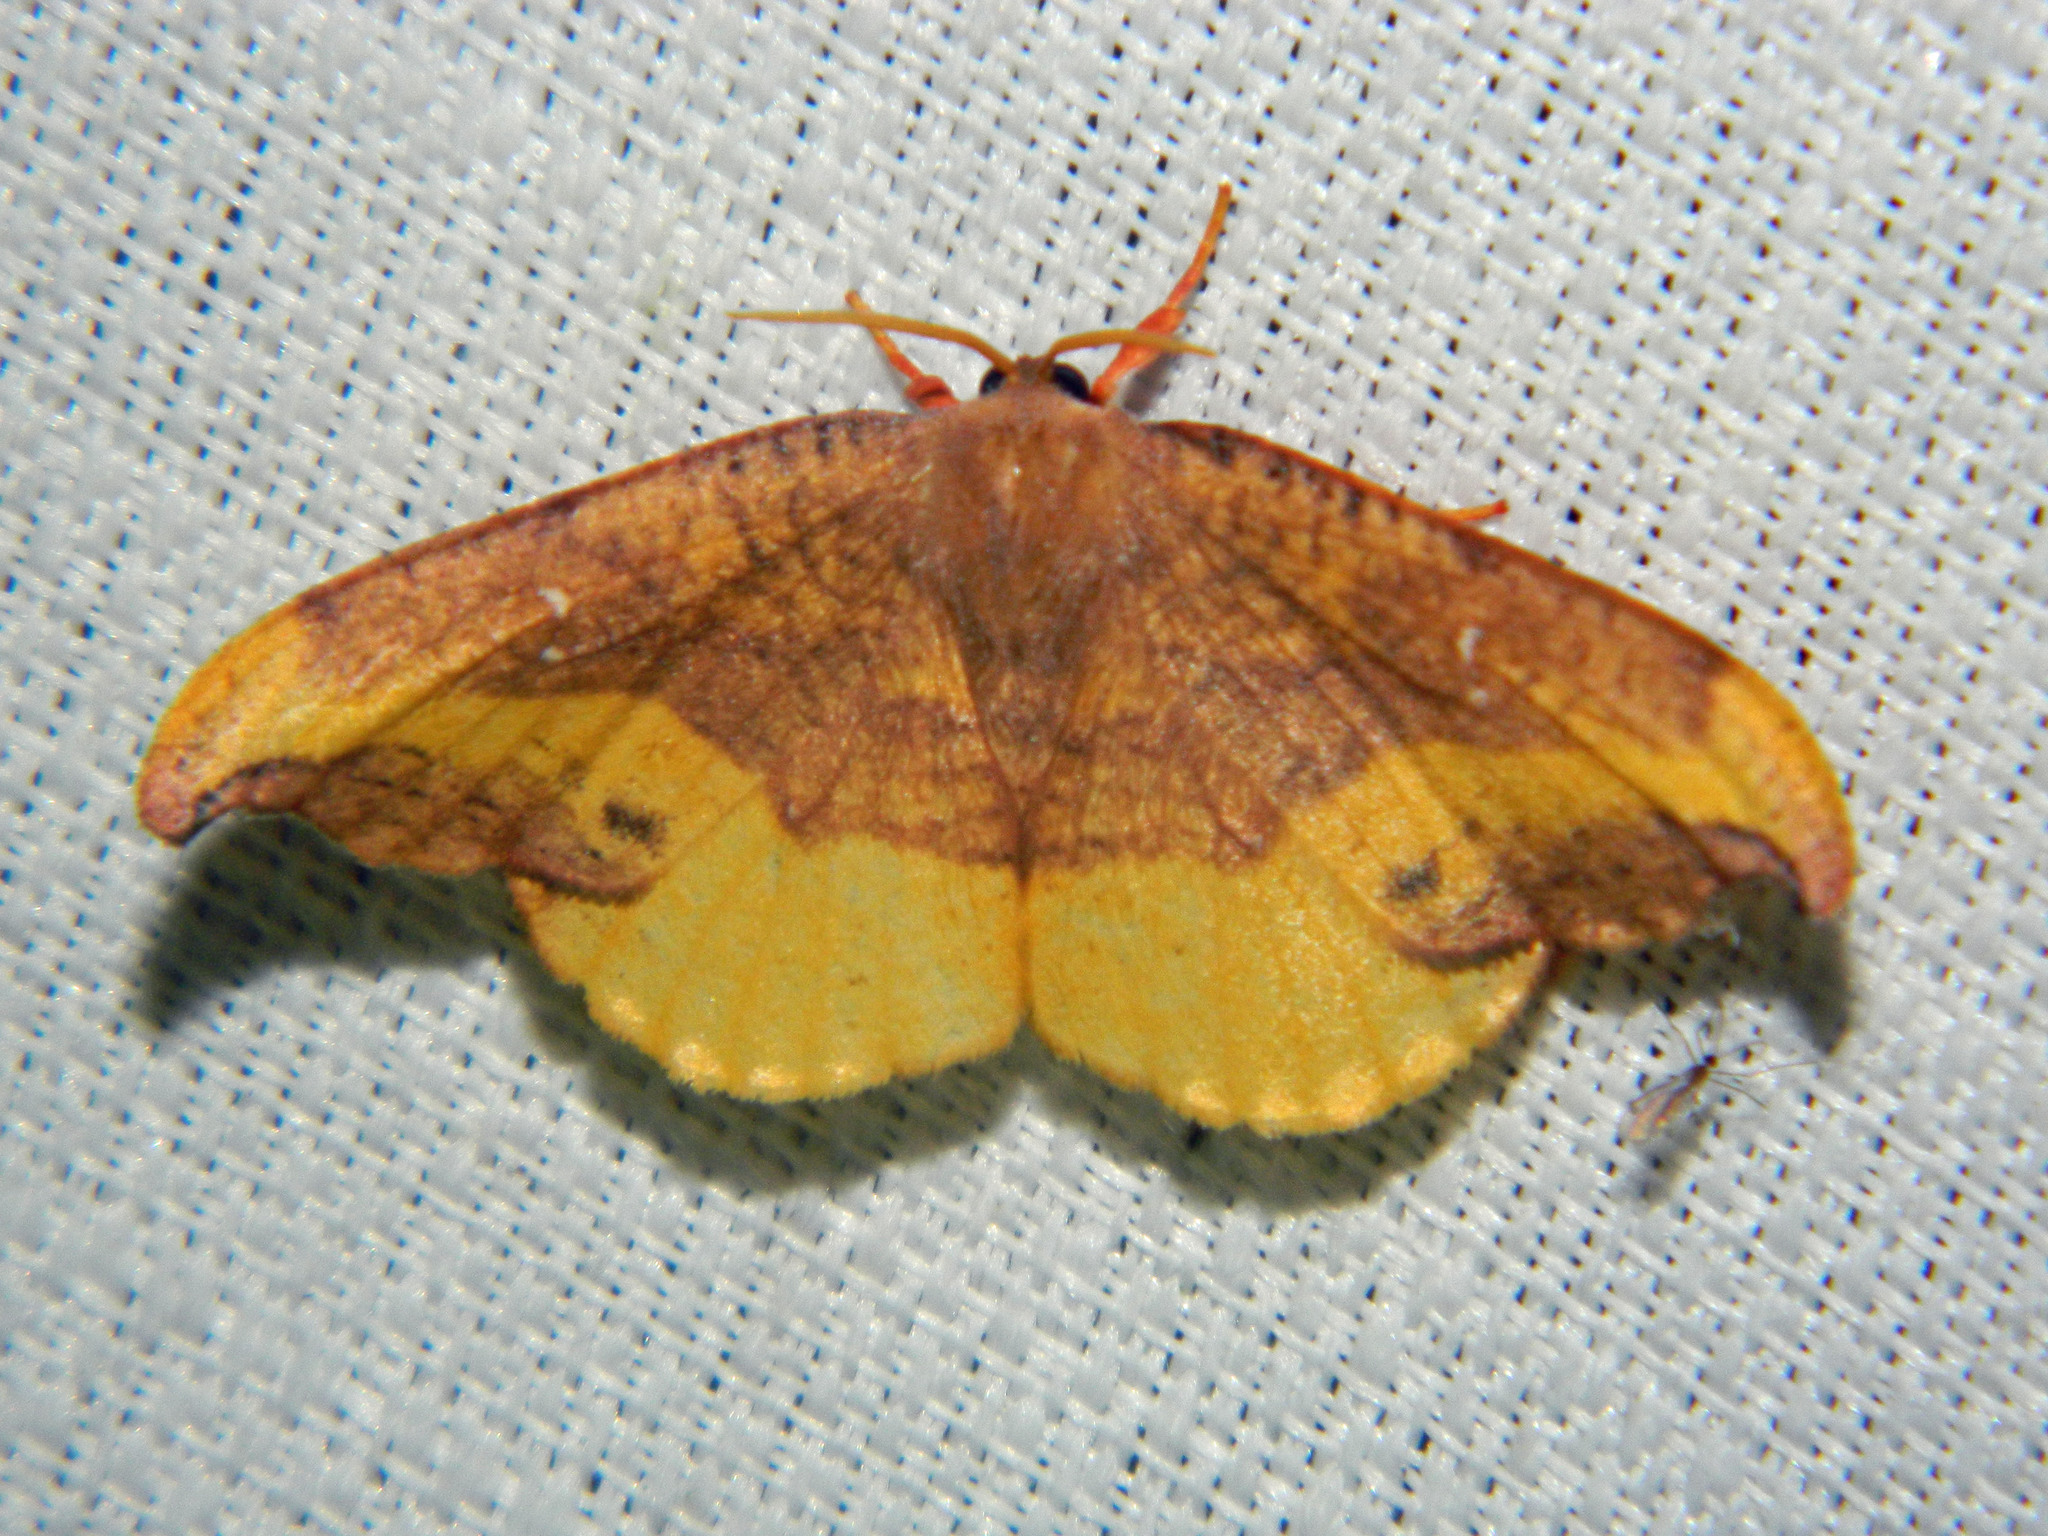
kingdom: Animalia
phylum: Arthropoda
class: Insecta
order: Lepidoptera
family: Drepanidae
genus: Oreta
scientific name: Oreta rosea
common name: Rose hooktip
